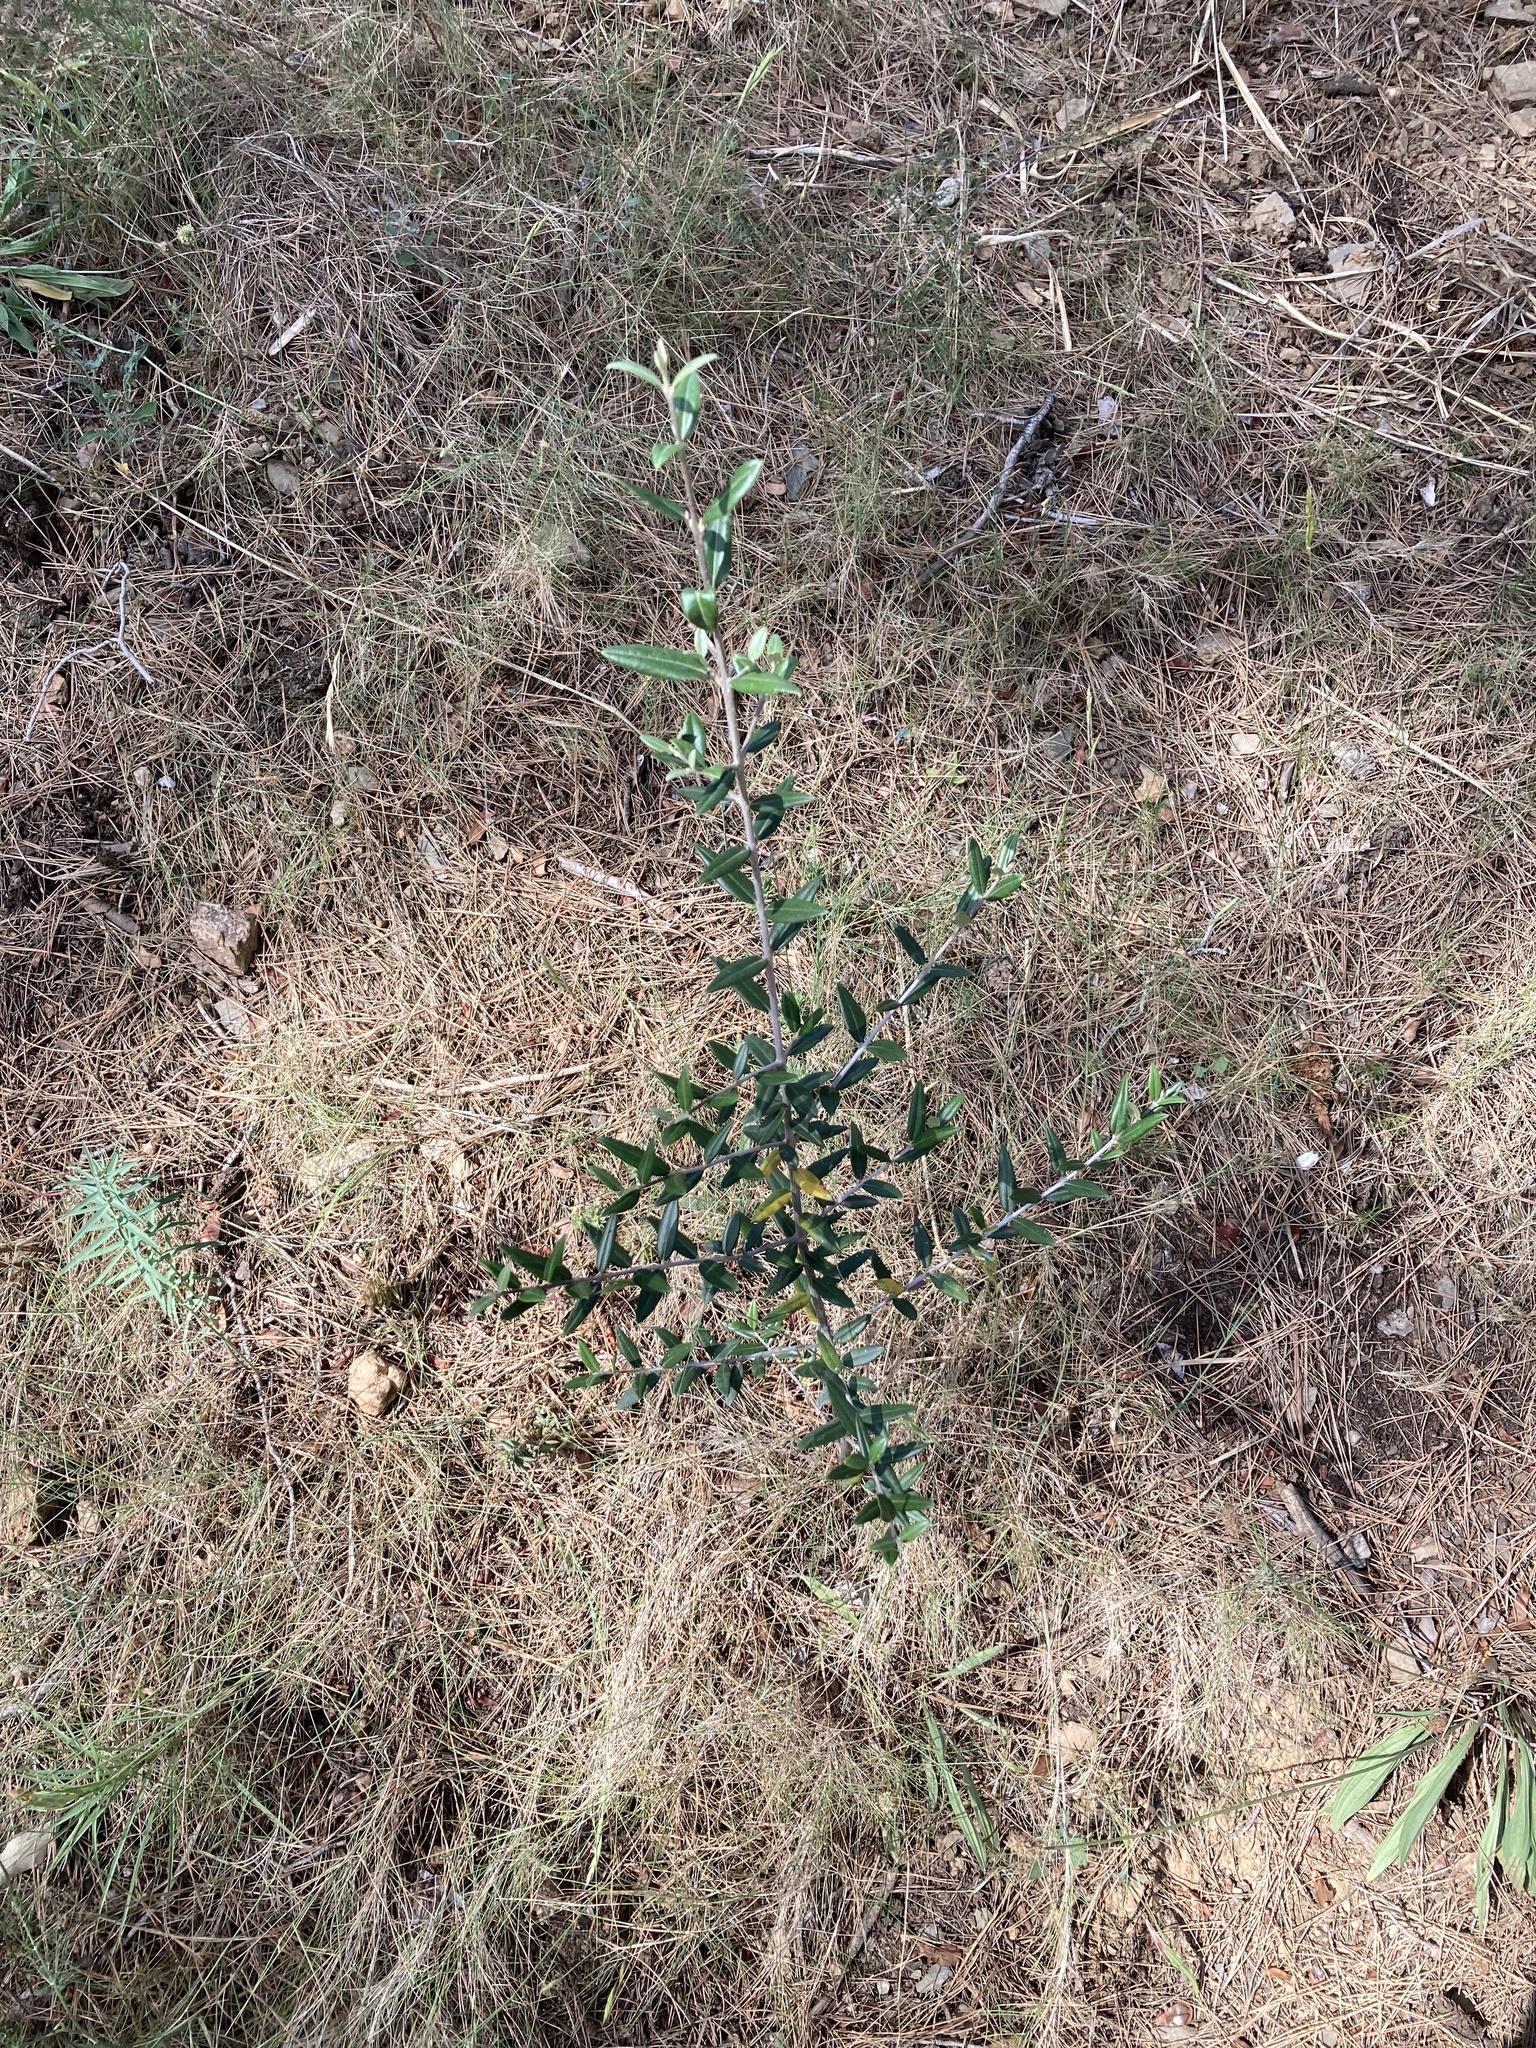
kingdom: Plantae
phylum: Tracheophyta
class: Magnoliopsida
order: Lamiales
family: Oleaceae
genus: Olea
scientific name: Olea europaea
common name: Olive
